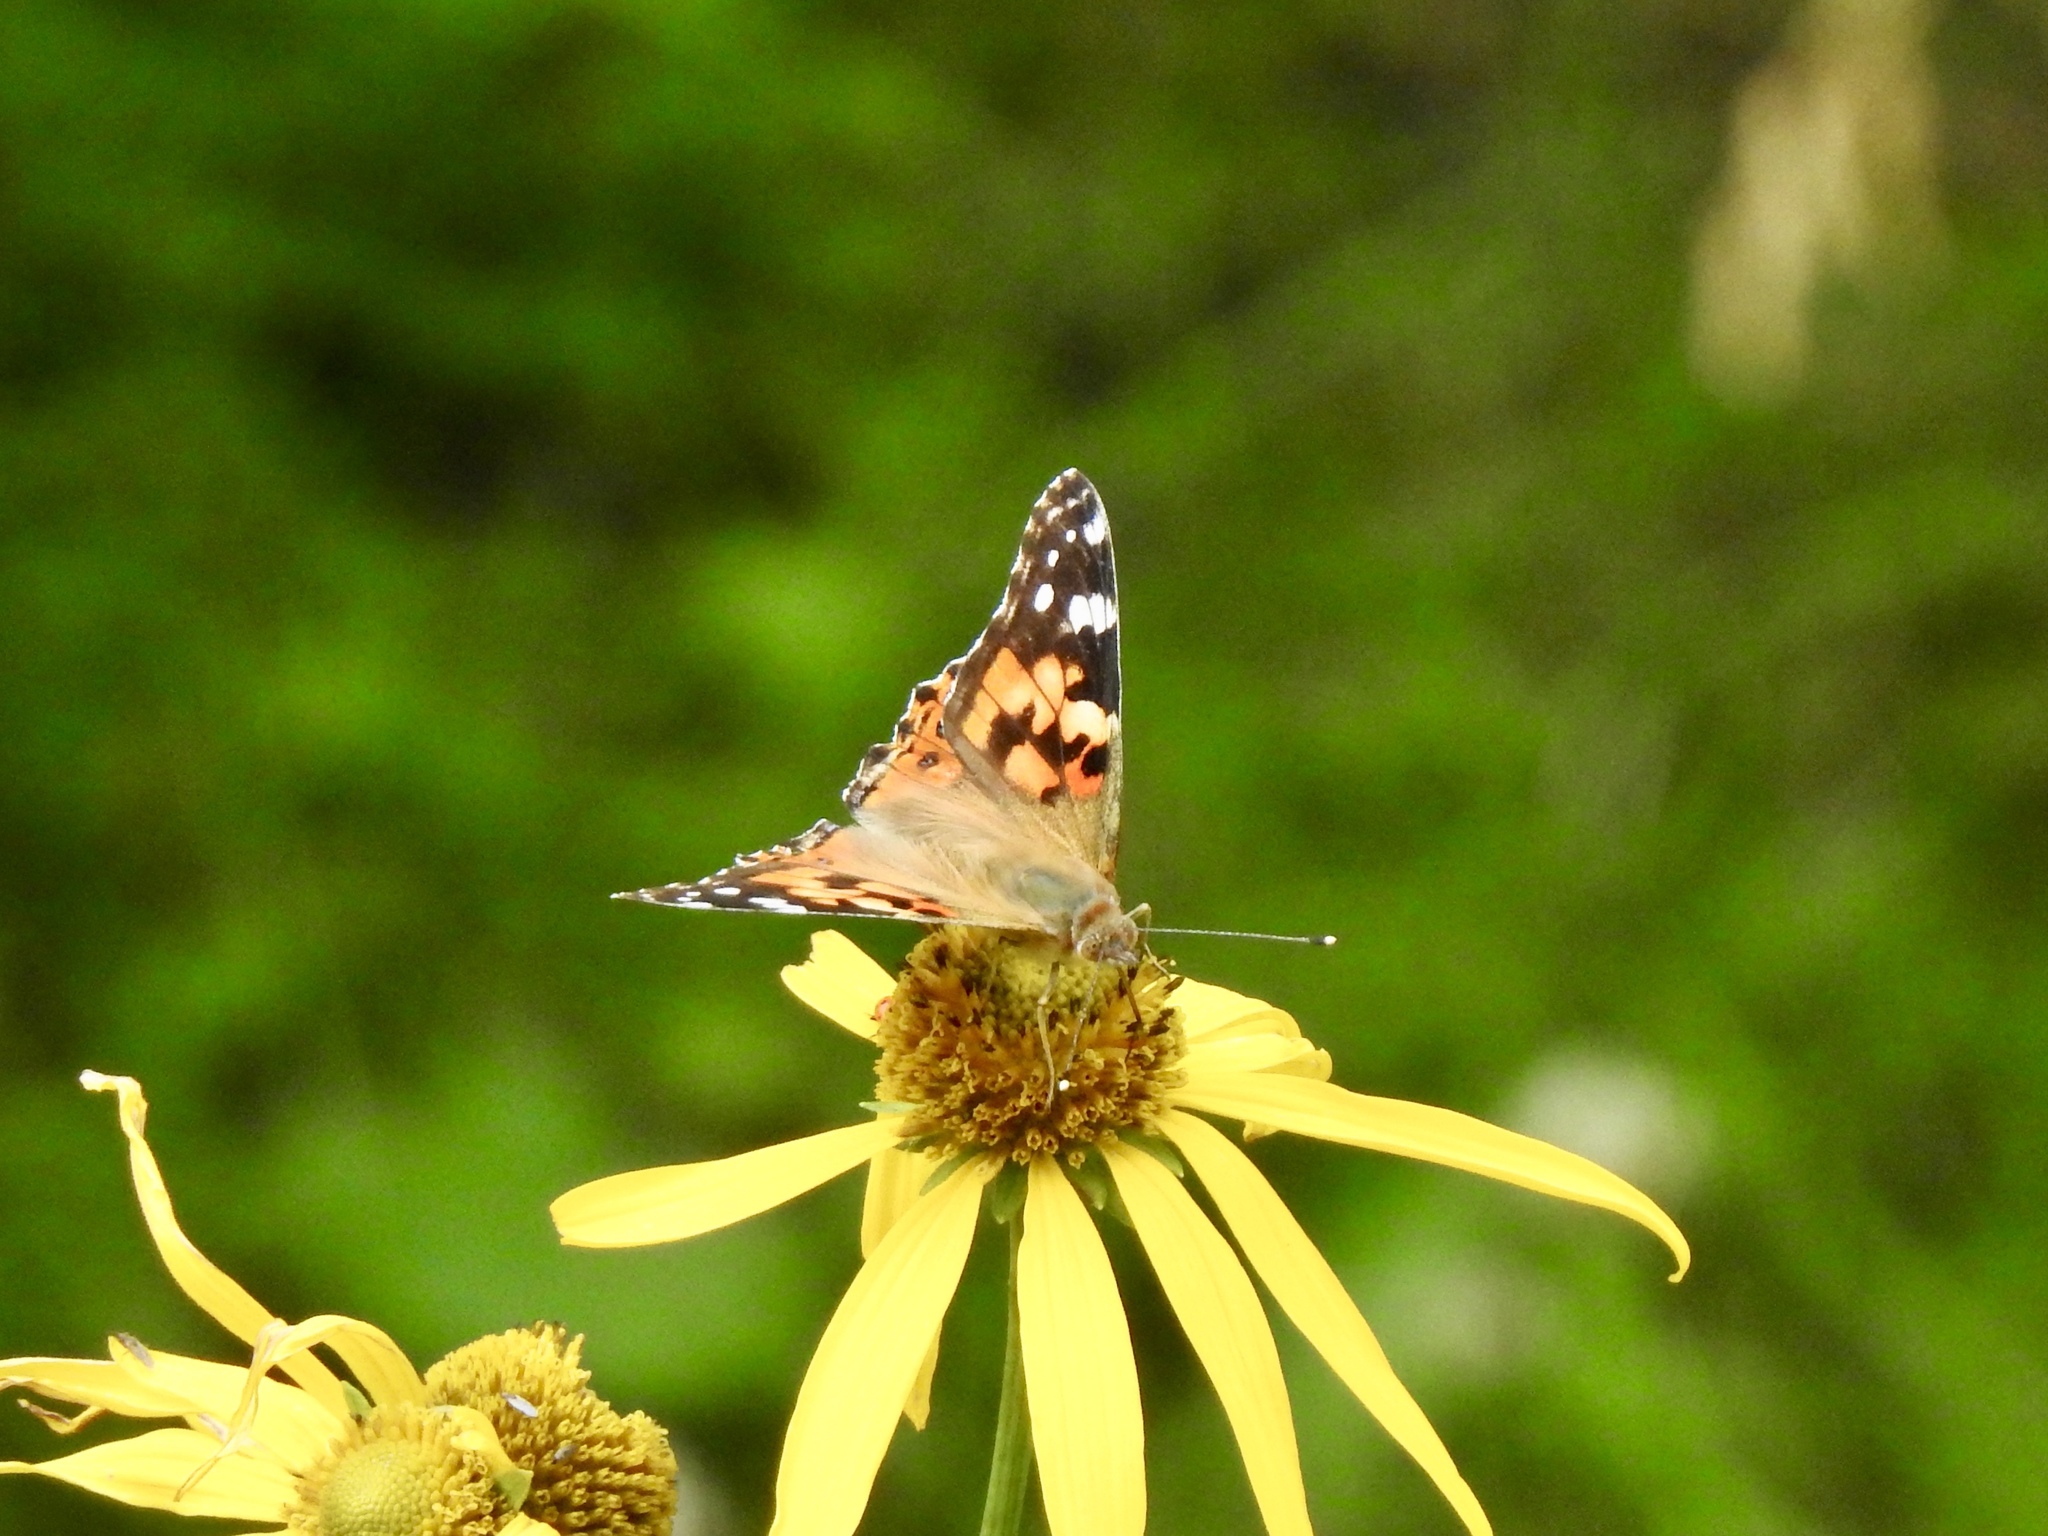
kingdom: Animalia
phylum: Arthropoda
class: Insecta
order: Lepidoptera
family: Nymphalidae
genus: Vanessa
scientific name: Vanessa cardui
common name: Painted lady
